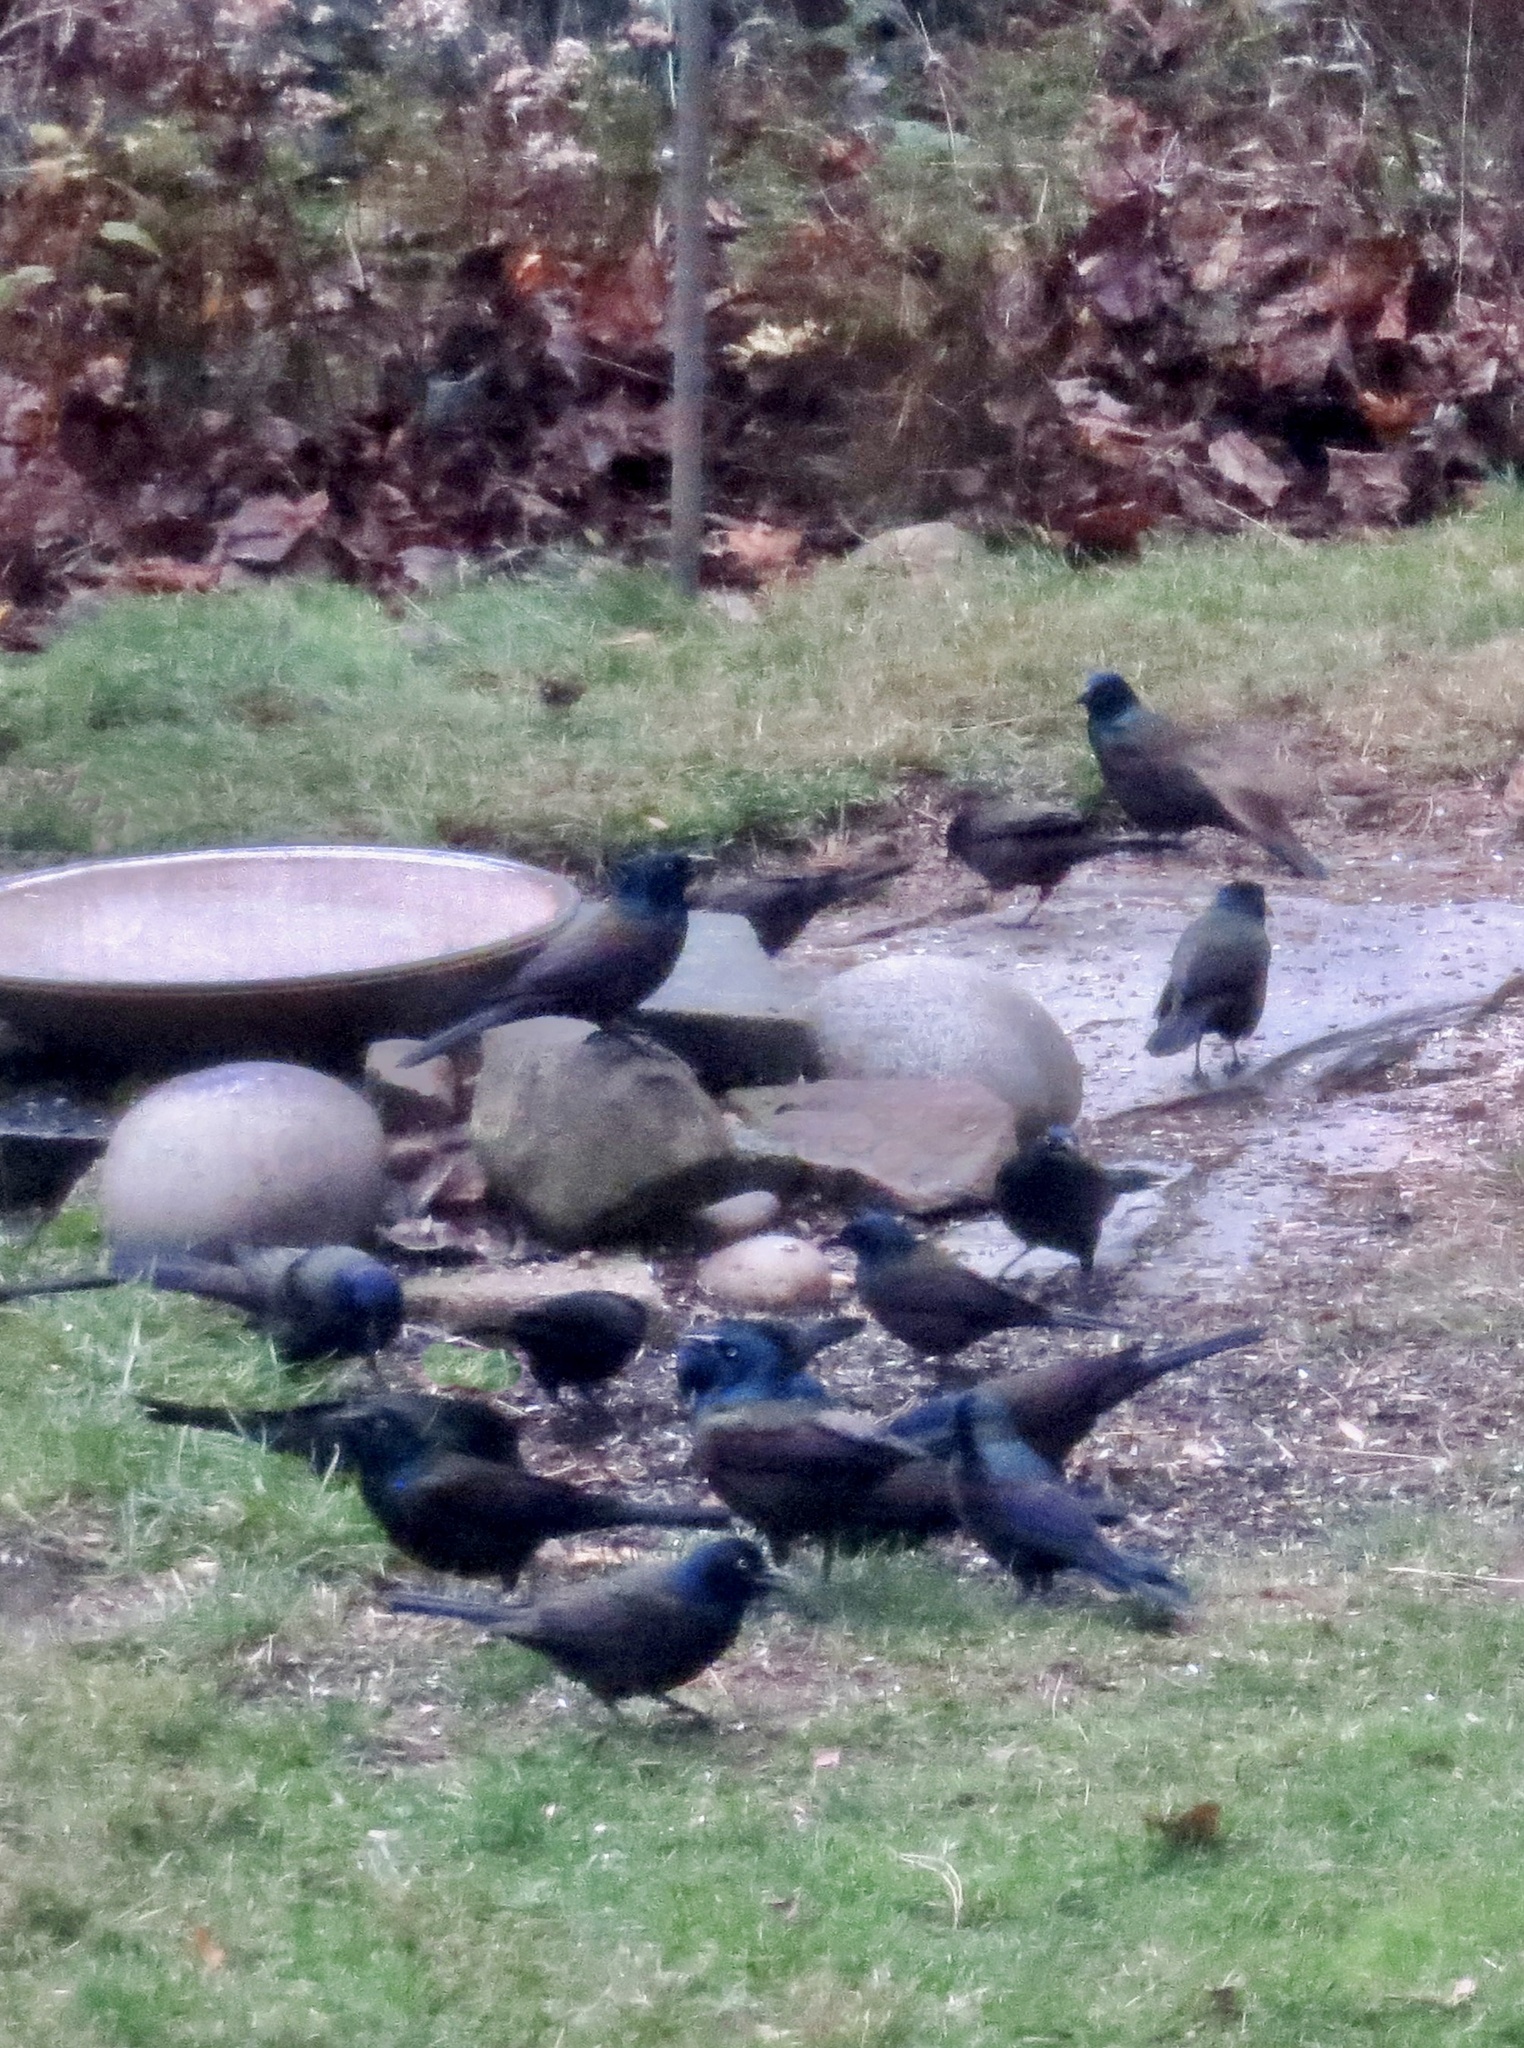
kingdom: Animalia
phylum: Chordata
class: Aves
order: Passeriformes
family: Icteridae
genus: Quiscalus
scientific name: Quiscalus quiscula
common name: Common grackle
